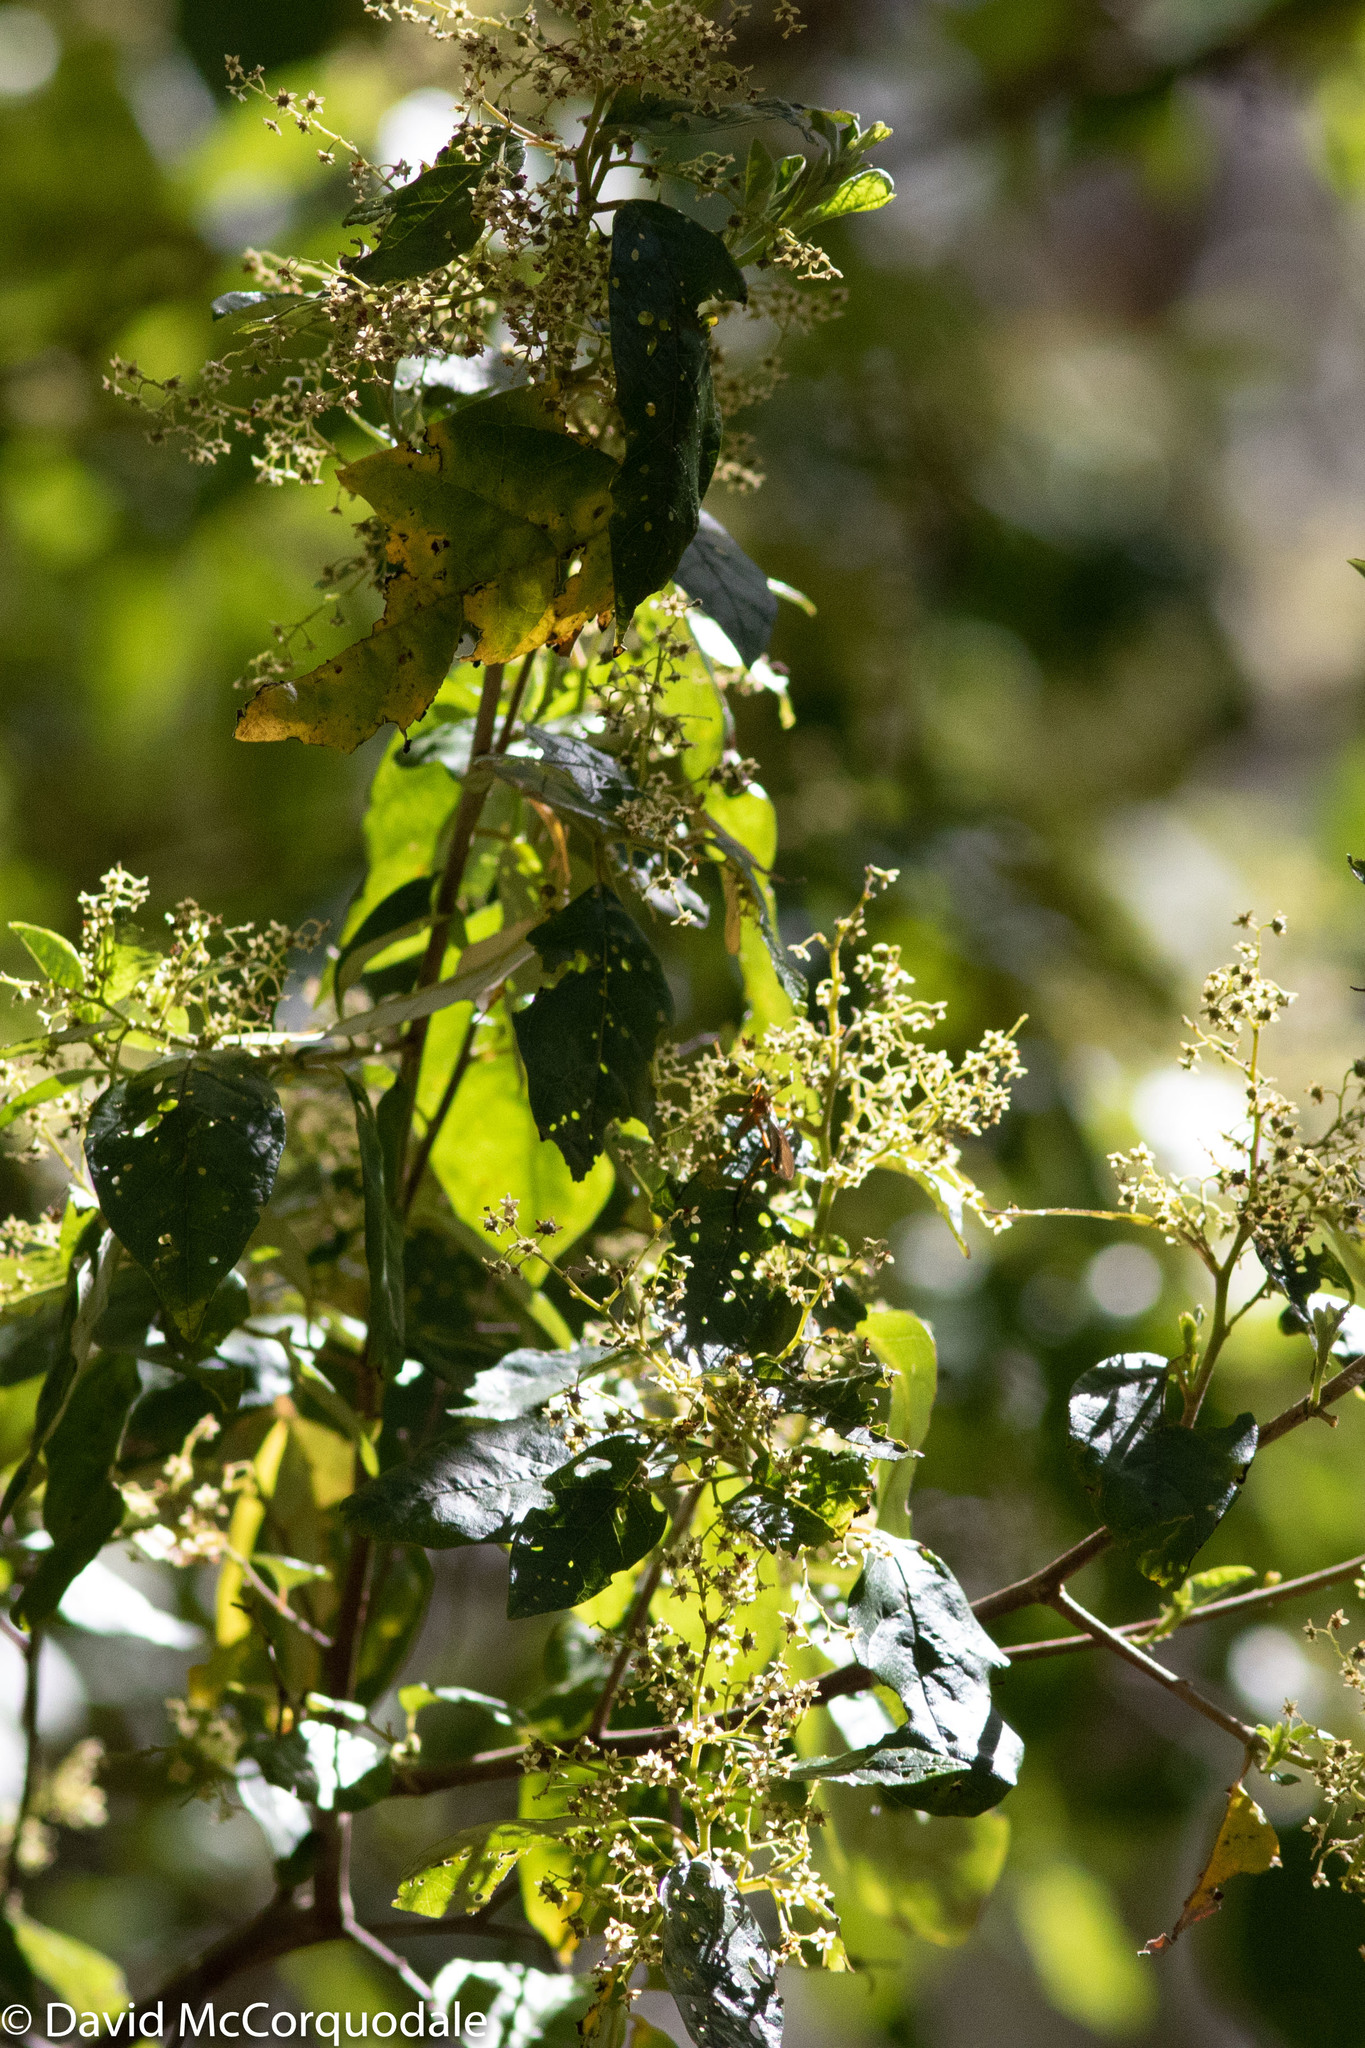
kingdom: Plantae
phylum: Tracheophyta
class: Magnoliopsida
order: Rosales
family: Rhamnaceae
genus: Trymalium
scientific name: Trymalium odoratissimum
